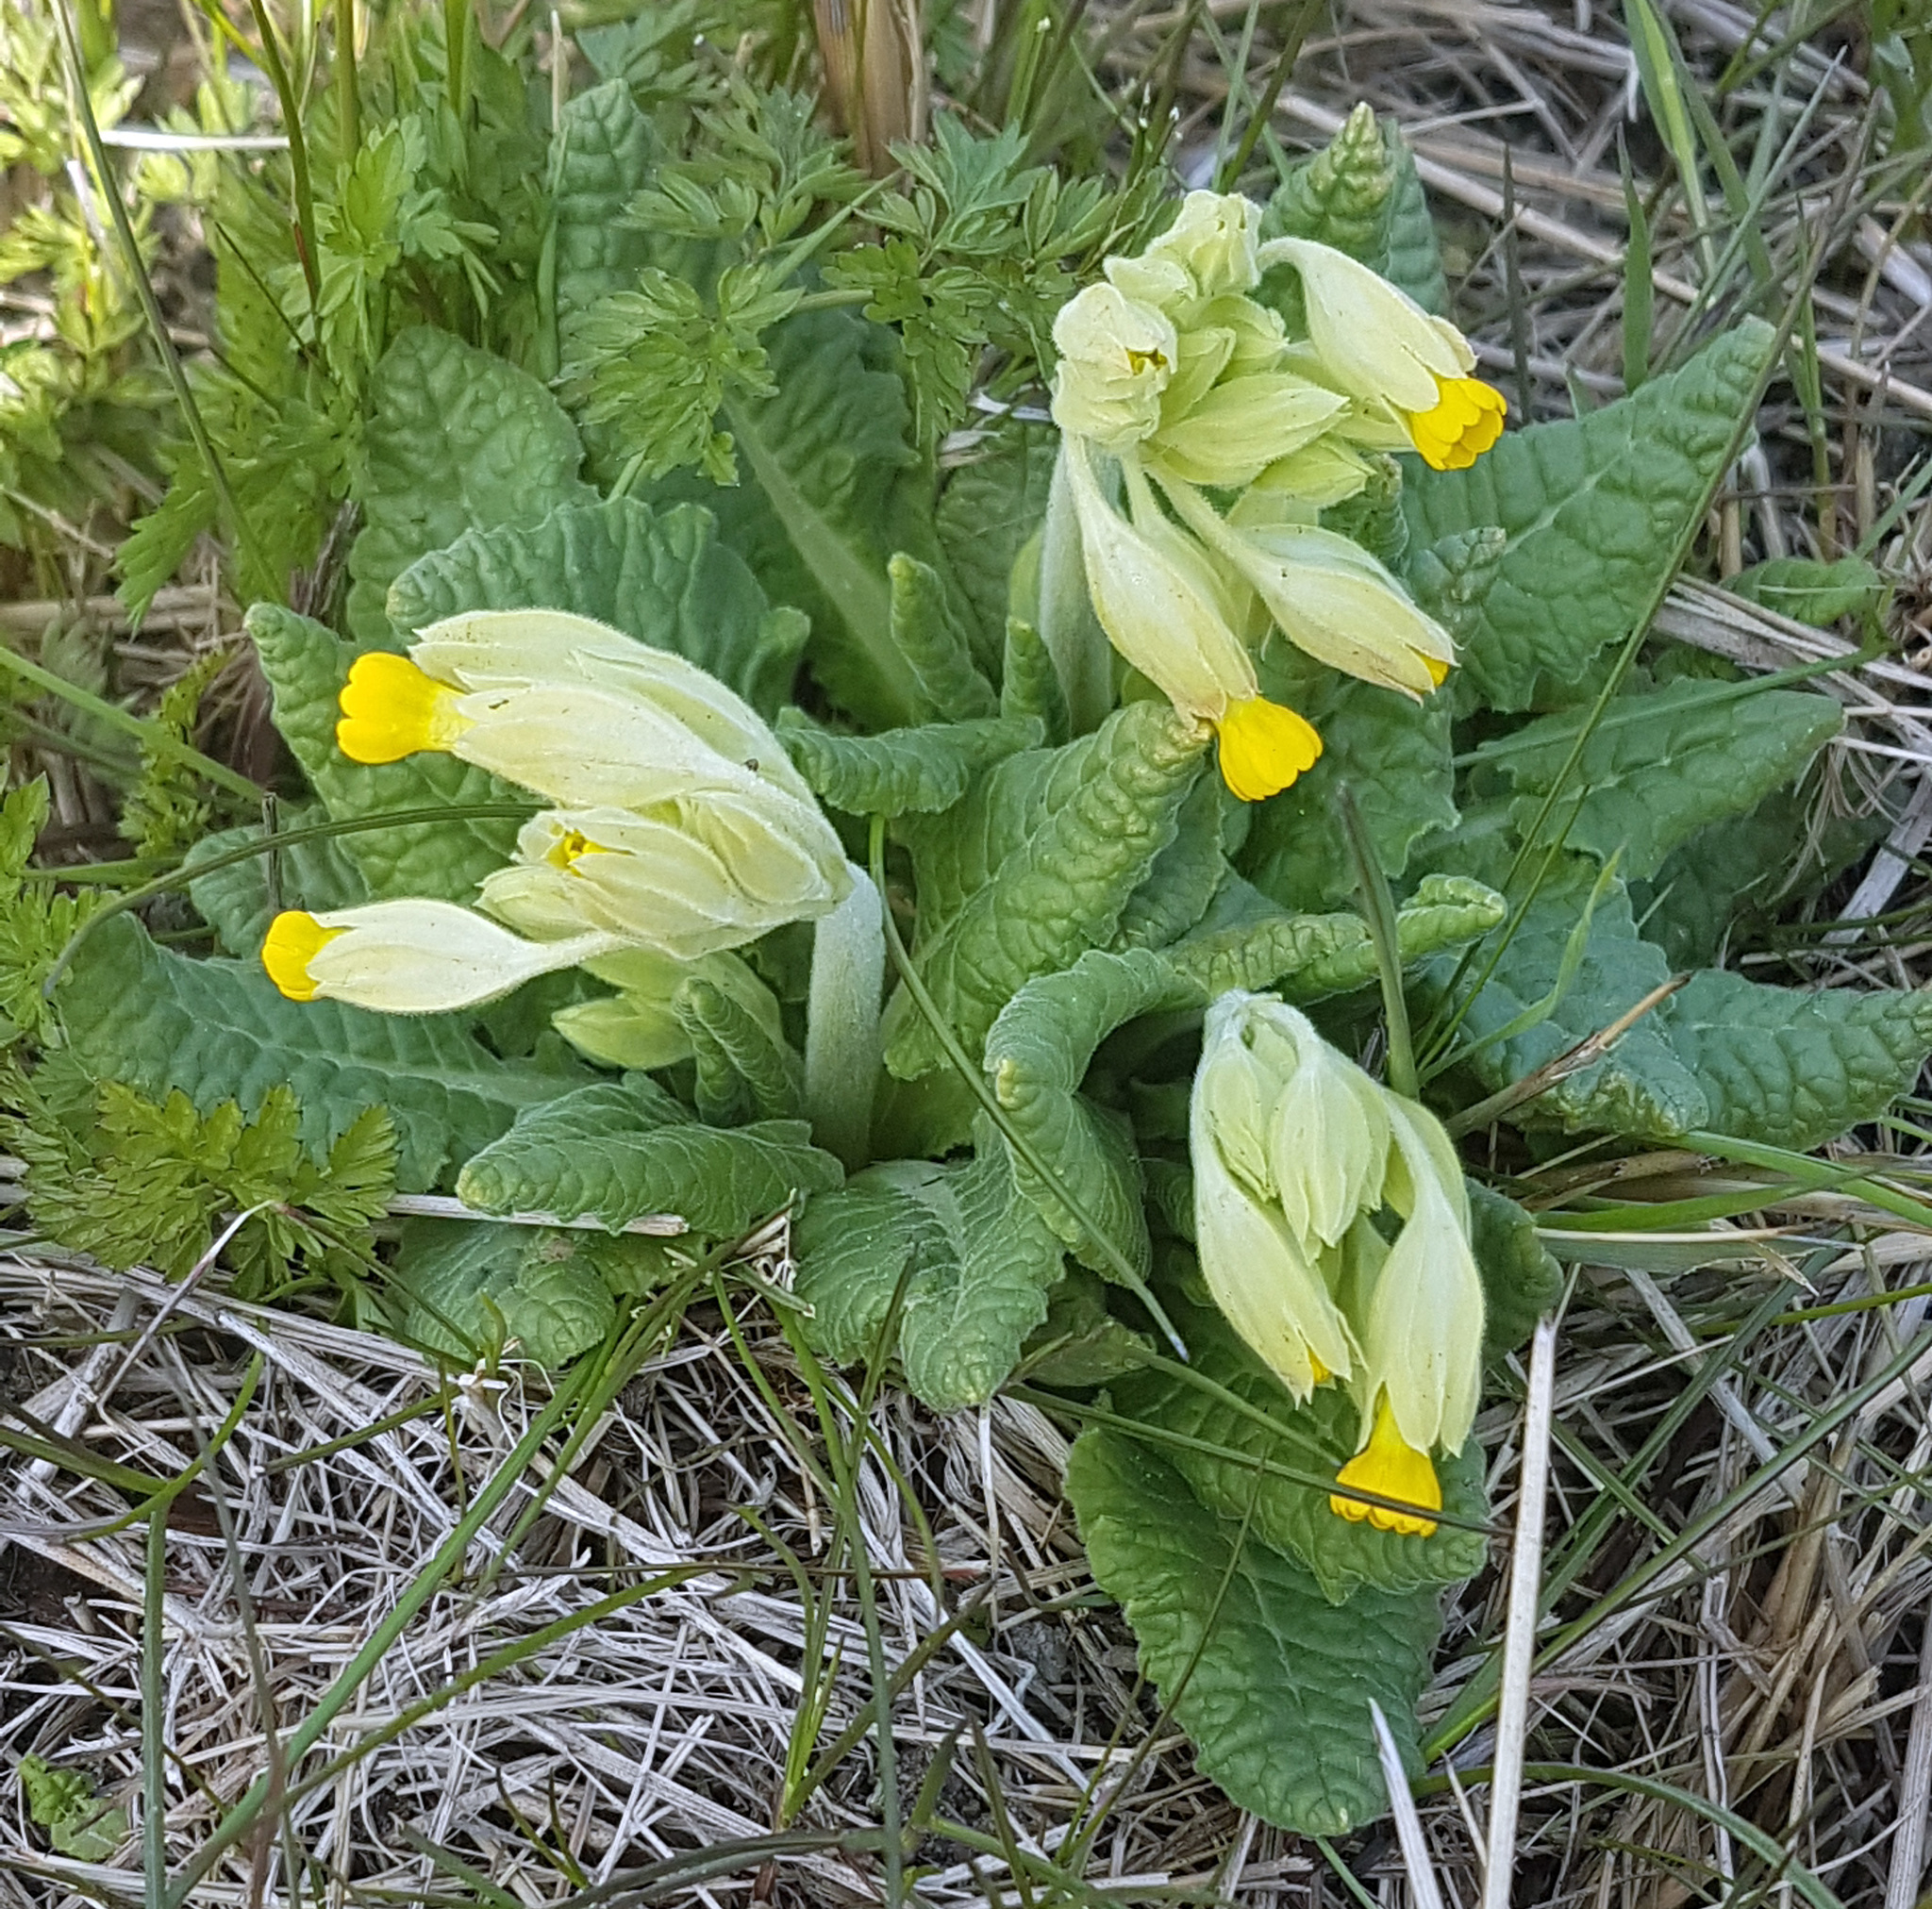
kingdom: Plantae
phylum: Tracheophyta
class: Magnoliopsida
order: Ericales
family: Primulaceae
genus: Primula
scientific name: Primula veris
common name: Cowslip
